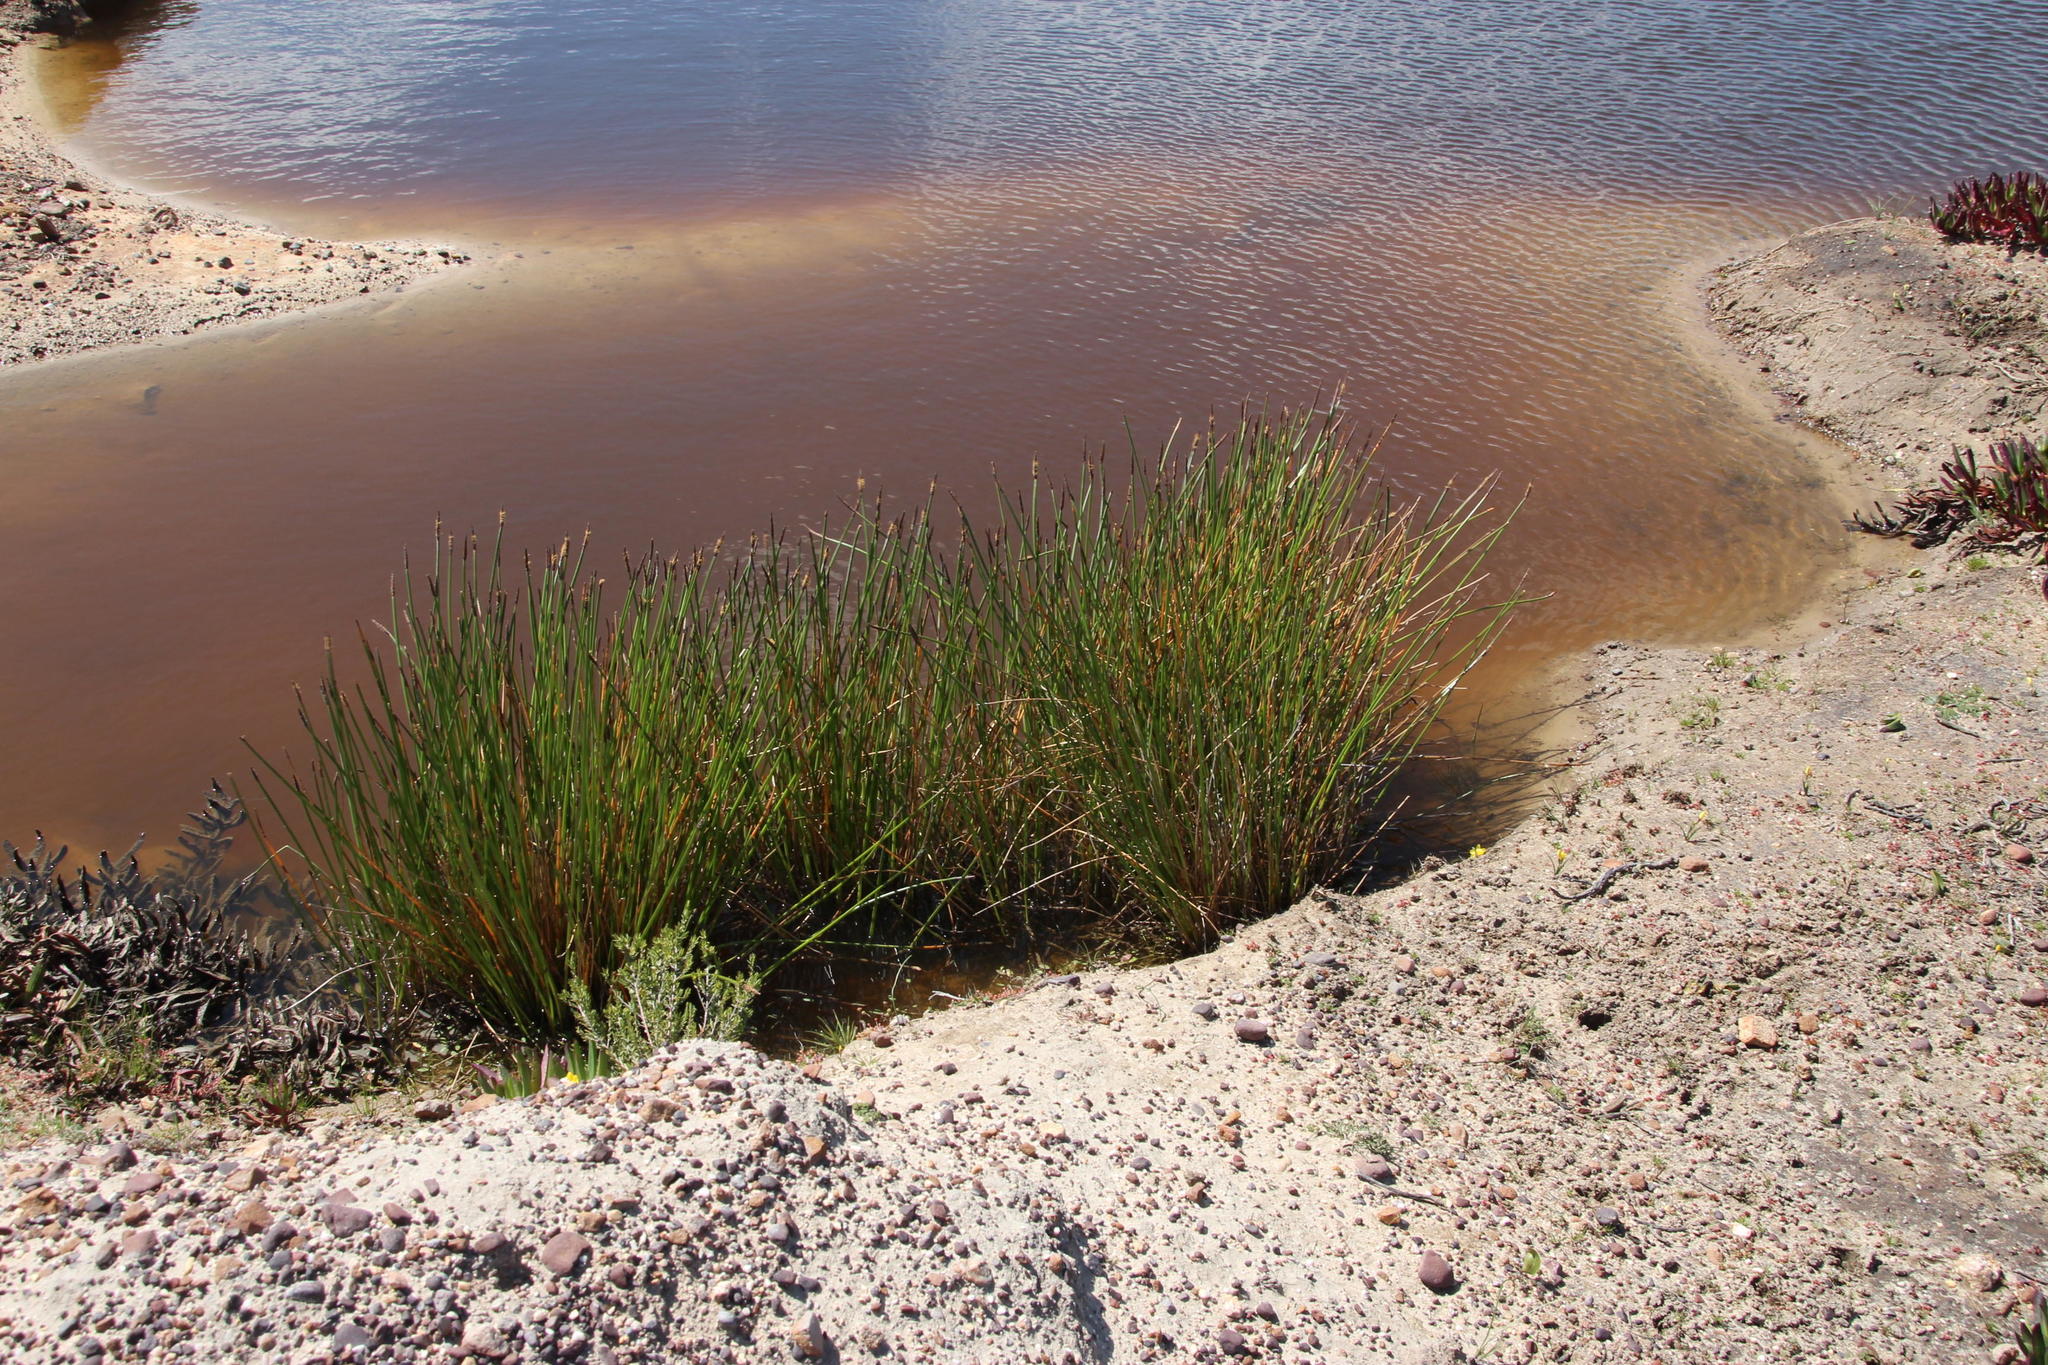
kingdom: Plantae
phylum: Tracheophyta
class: Liliopsida
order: Poales
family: Cyperaceae
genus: Eleocharis
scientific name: Eleocharis limosa
